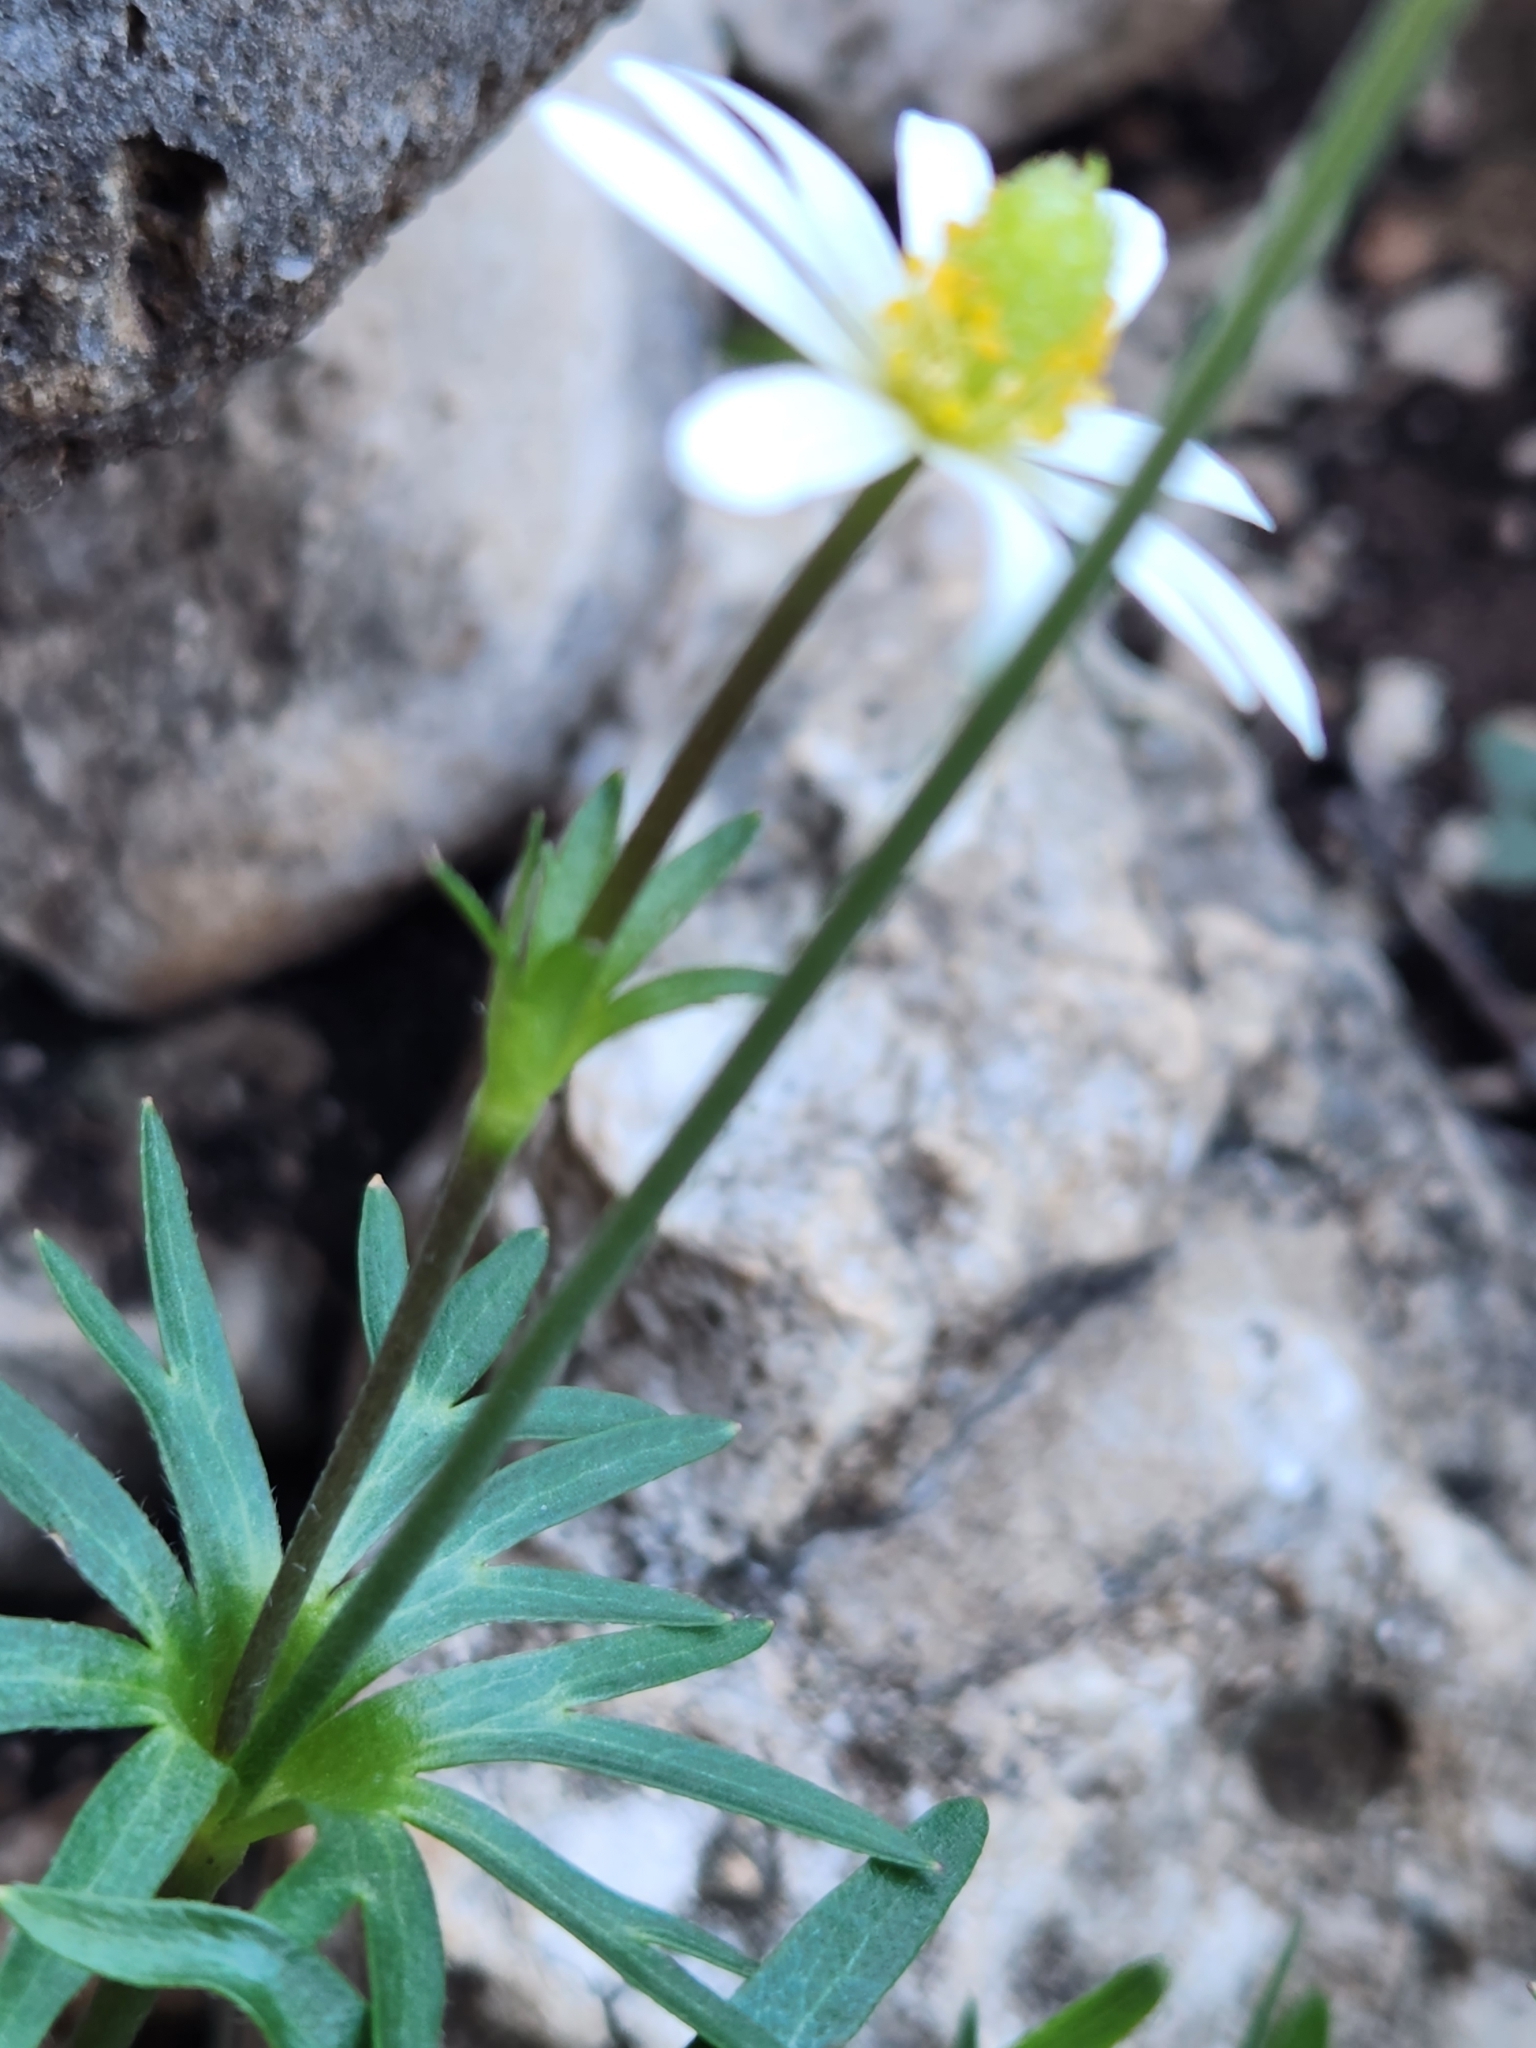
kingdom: Plantae
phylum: Tracheophyta
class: Magnoliopsida
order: Ranunculales
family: Ranunculaceae
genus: Anemone
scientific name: Anemone edwardsiana
